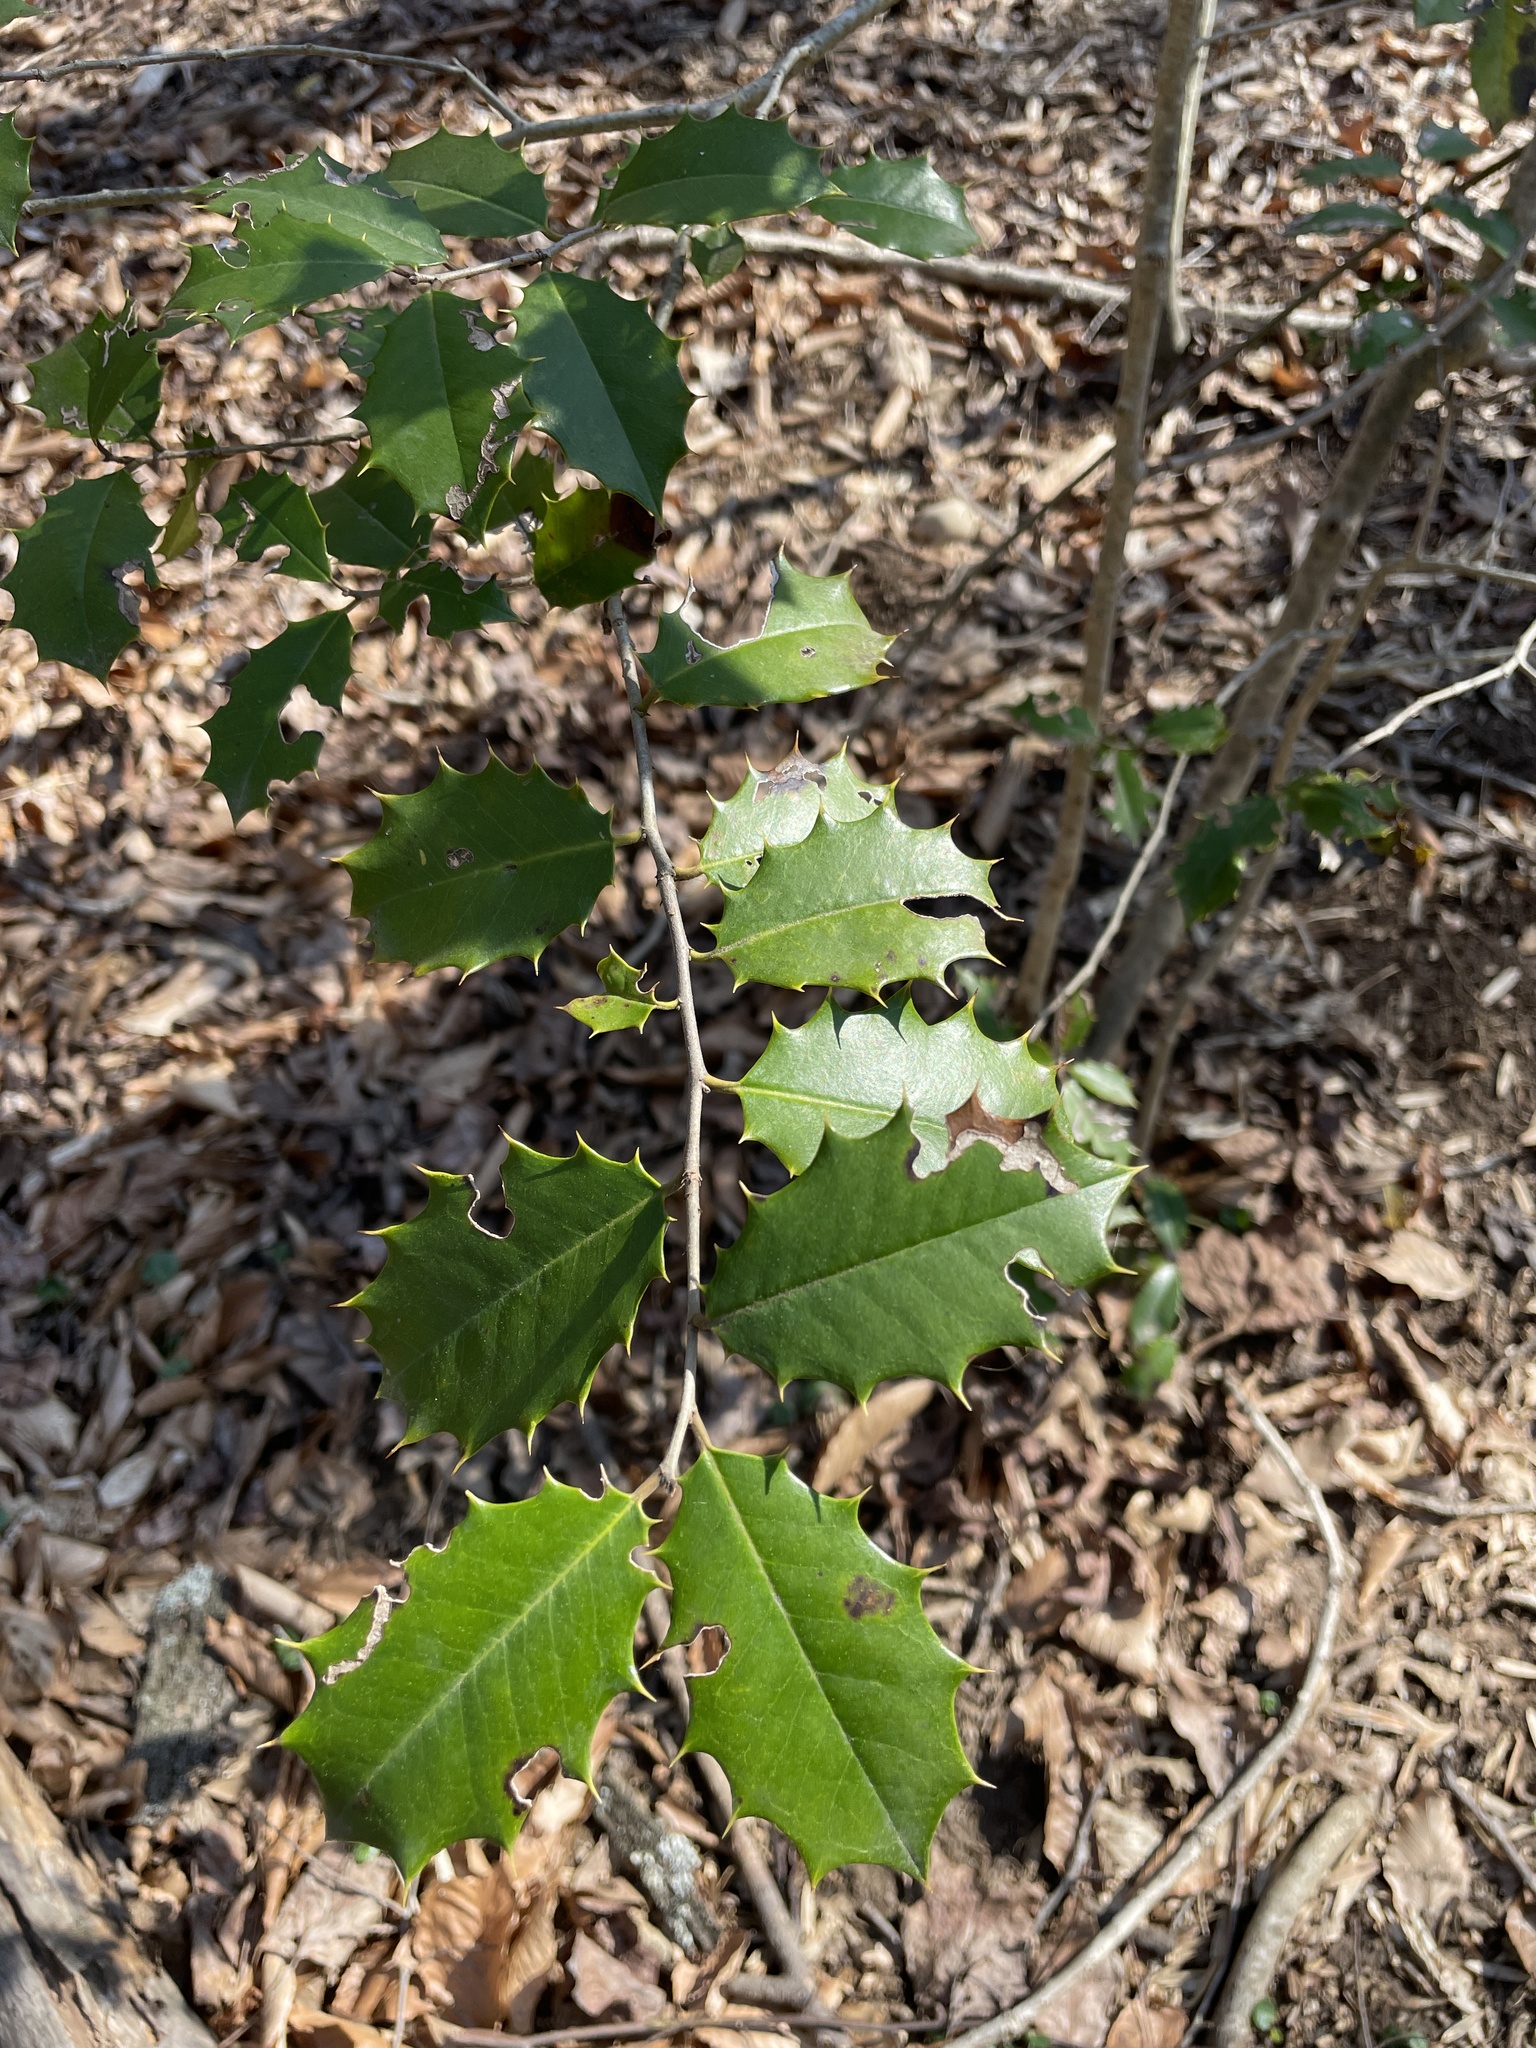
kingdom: Plantae
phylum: Tracheophyta
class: Magnoliopsida
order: Aquifoliales
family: Aquifoliaceae
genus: Ilex
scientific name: Ilex opaca
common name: American holly
